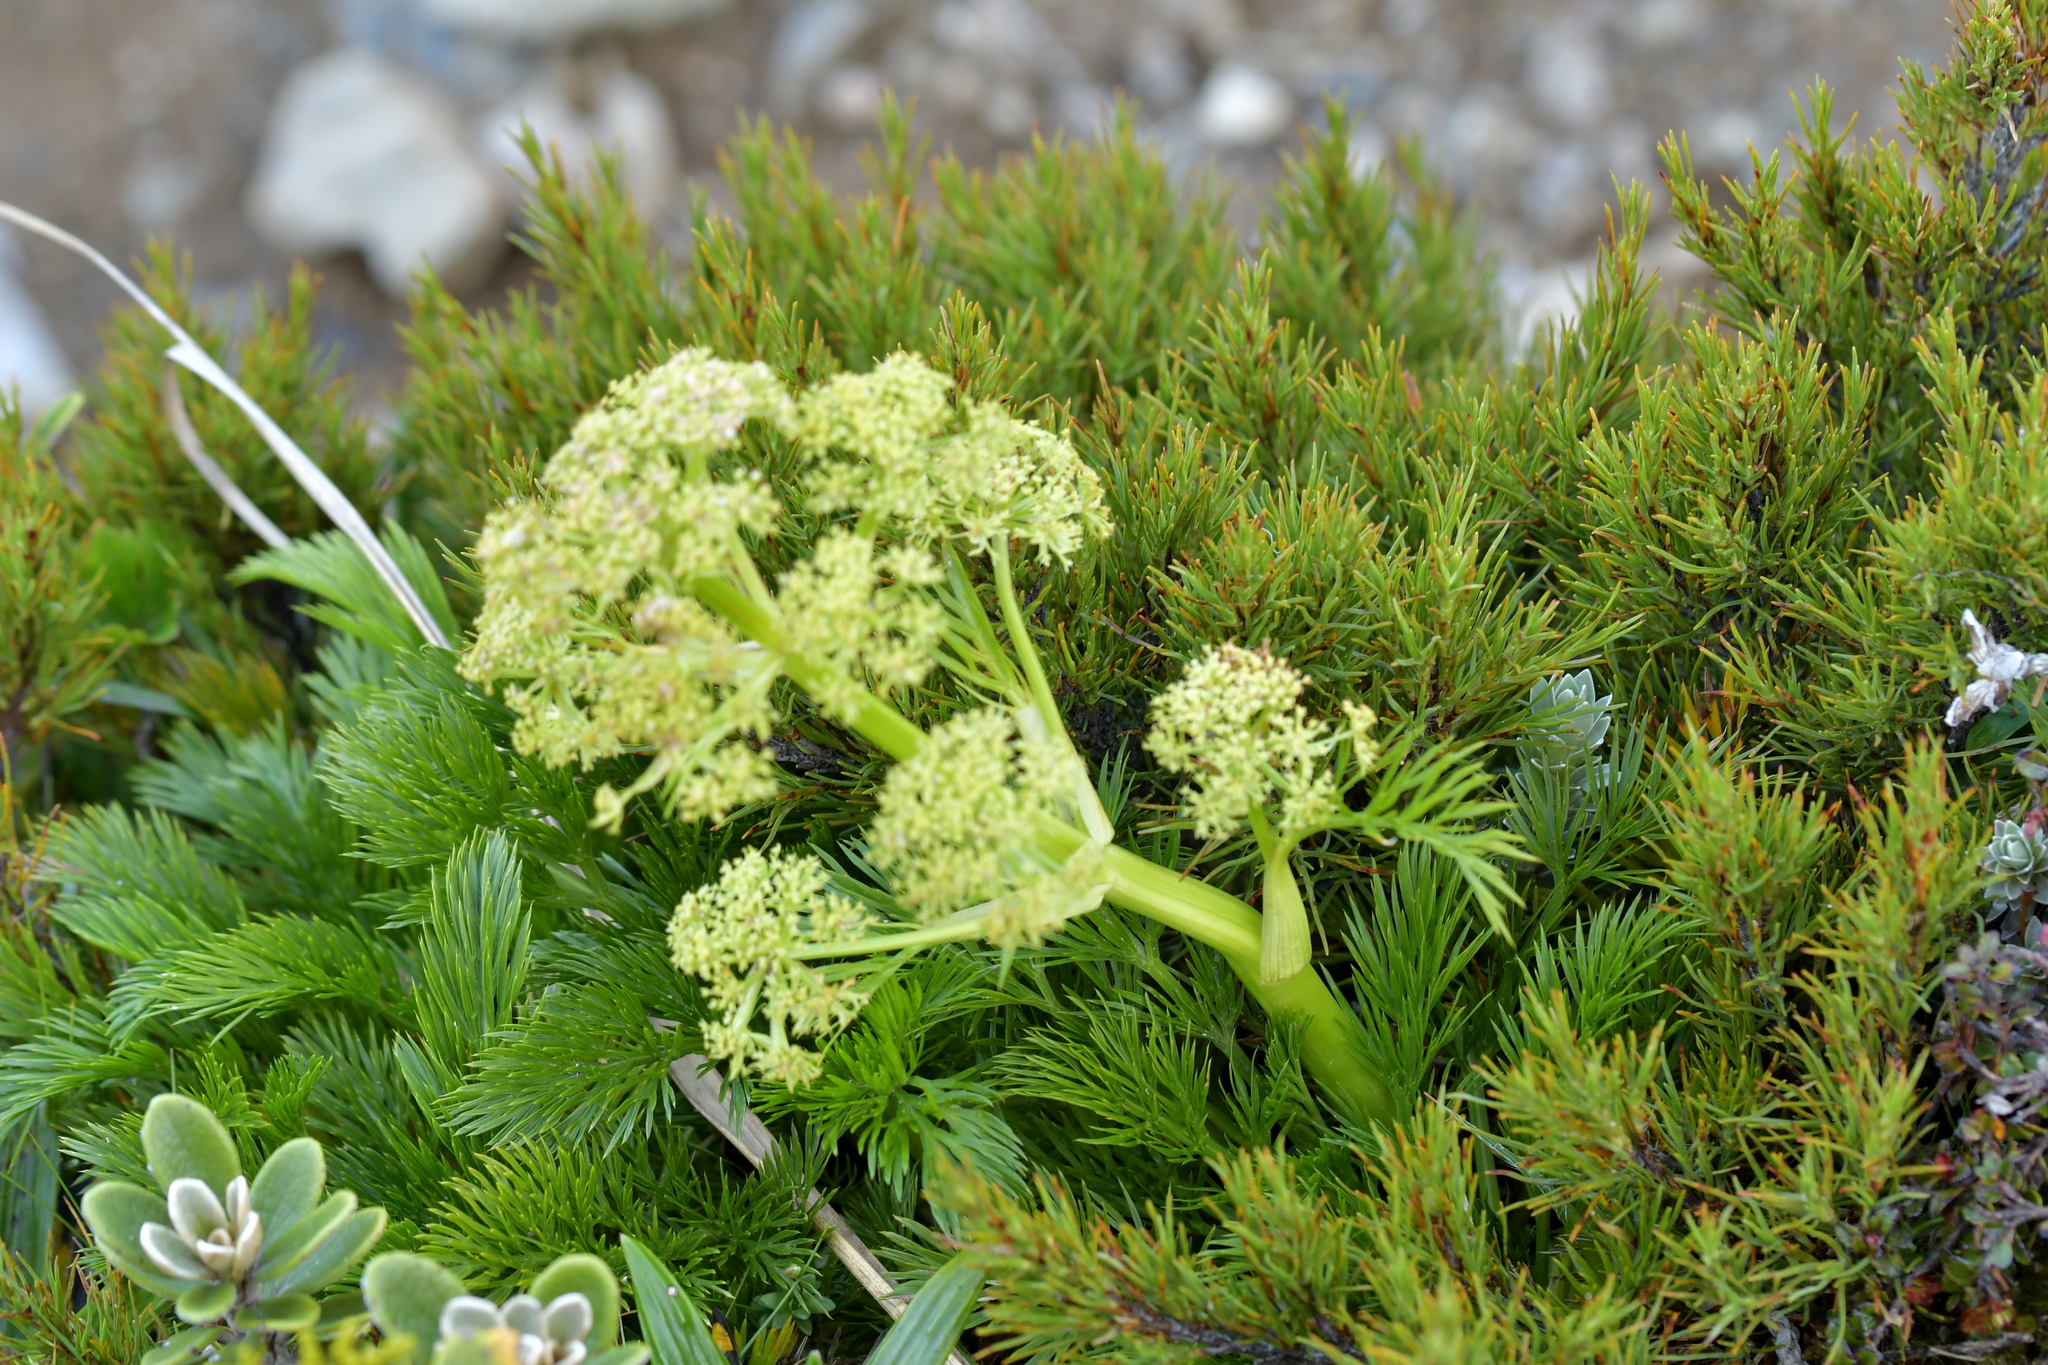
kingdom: Plantae
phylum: Tracheophyta
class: Magnoliopsida
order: Apiales
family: Apiaceae
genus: Aciphylla
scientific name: Aciphylla dissecta
